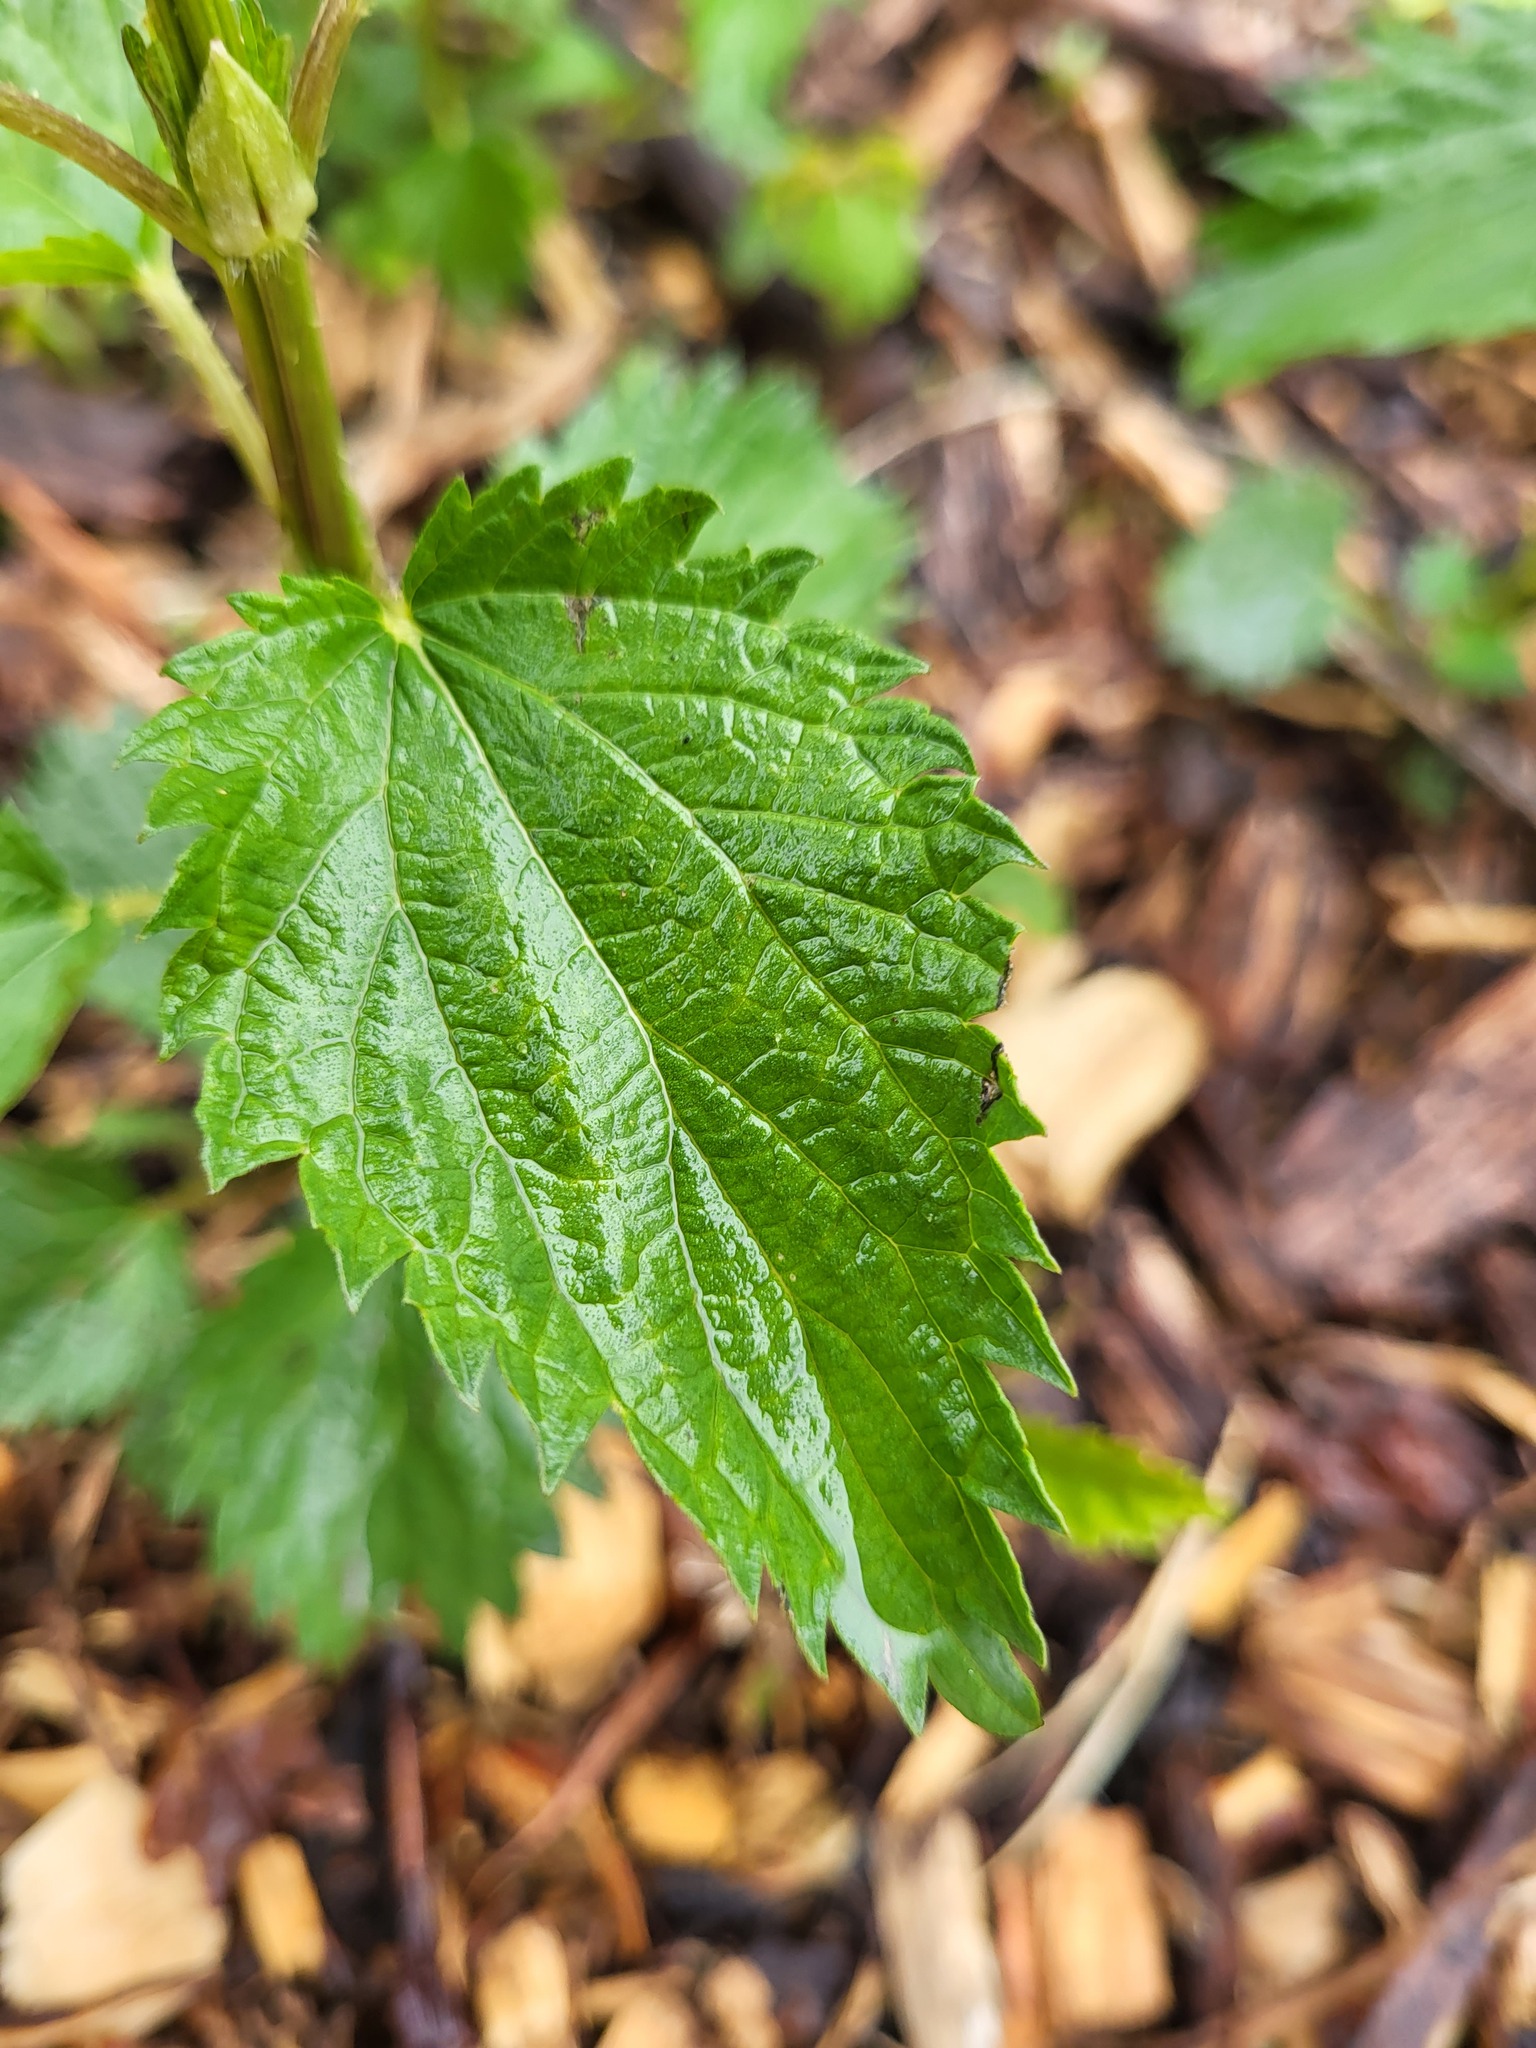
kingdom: Plantae
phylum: Tracheophyta
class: Magnoliopsida
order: Rosales
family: Urticaceae
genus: Urtica
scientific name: Urtica gracilis
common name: Slender stinging nettle
